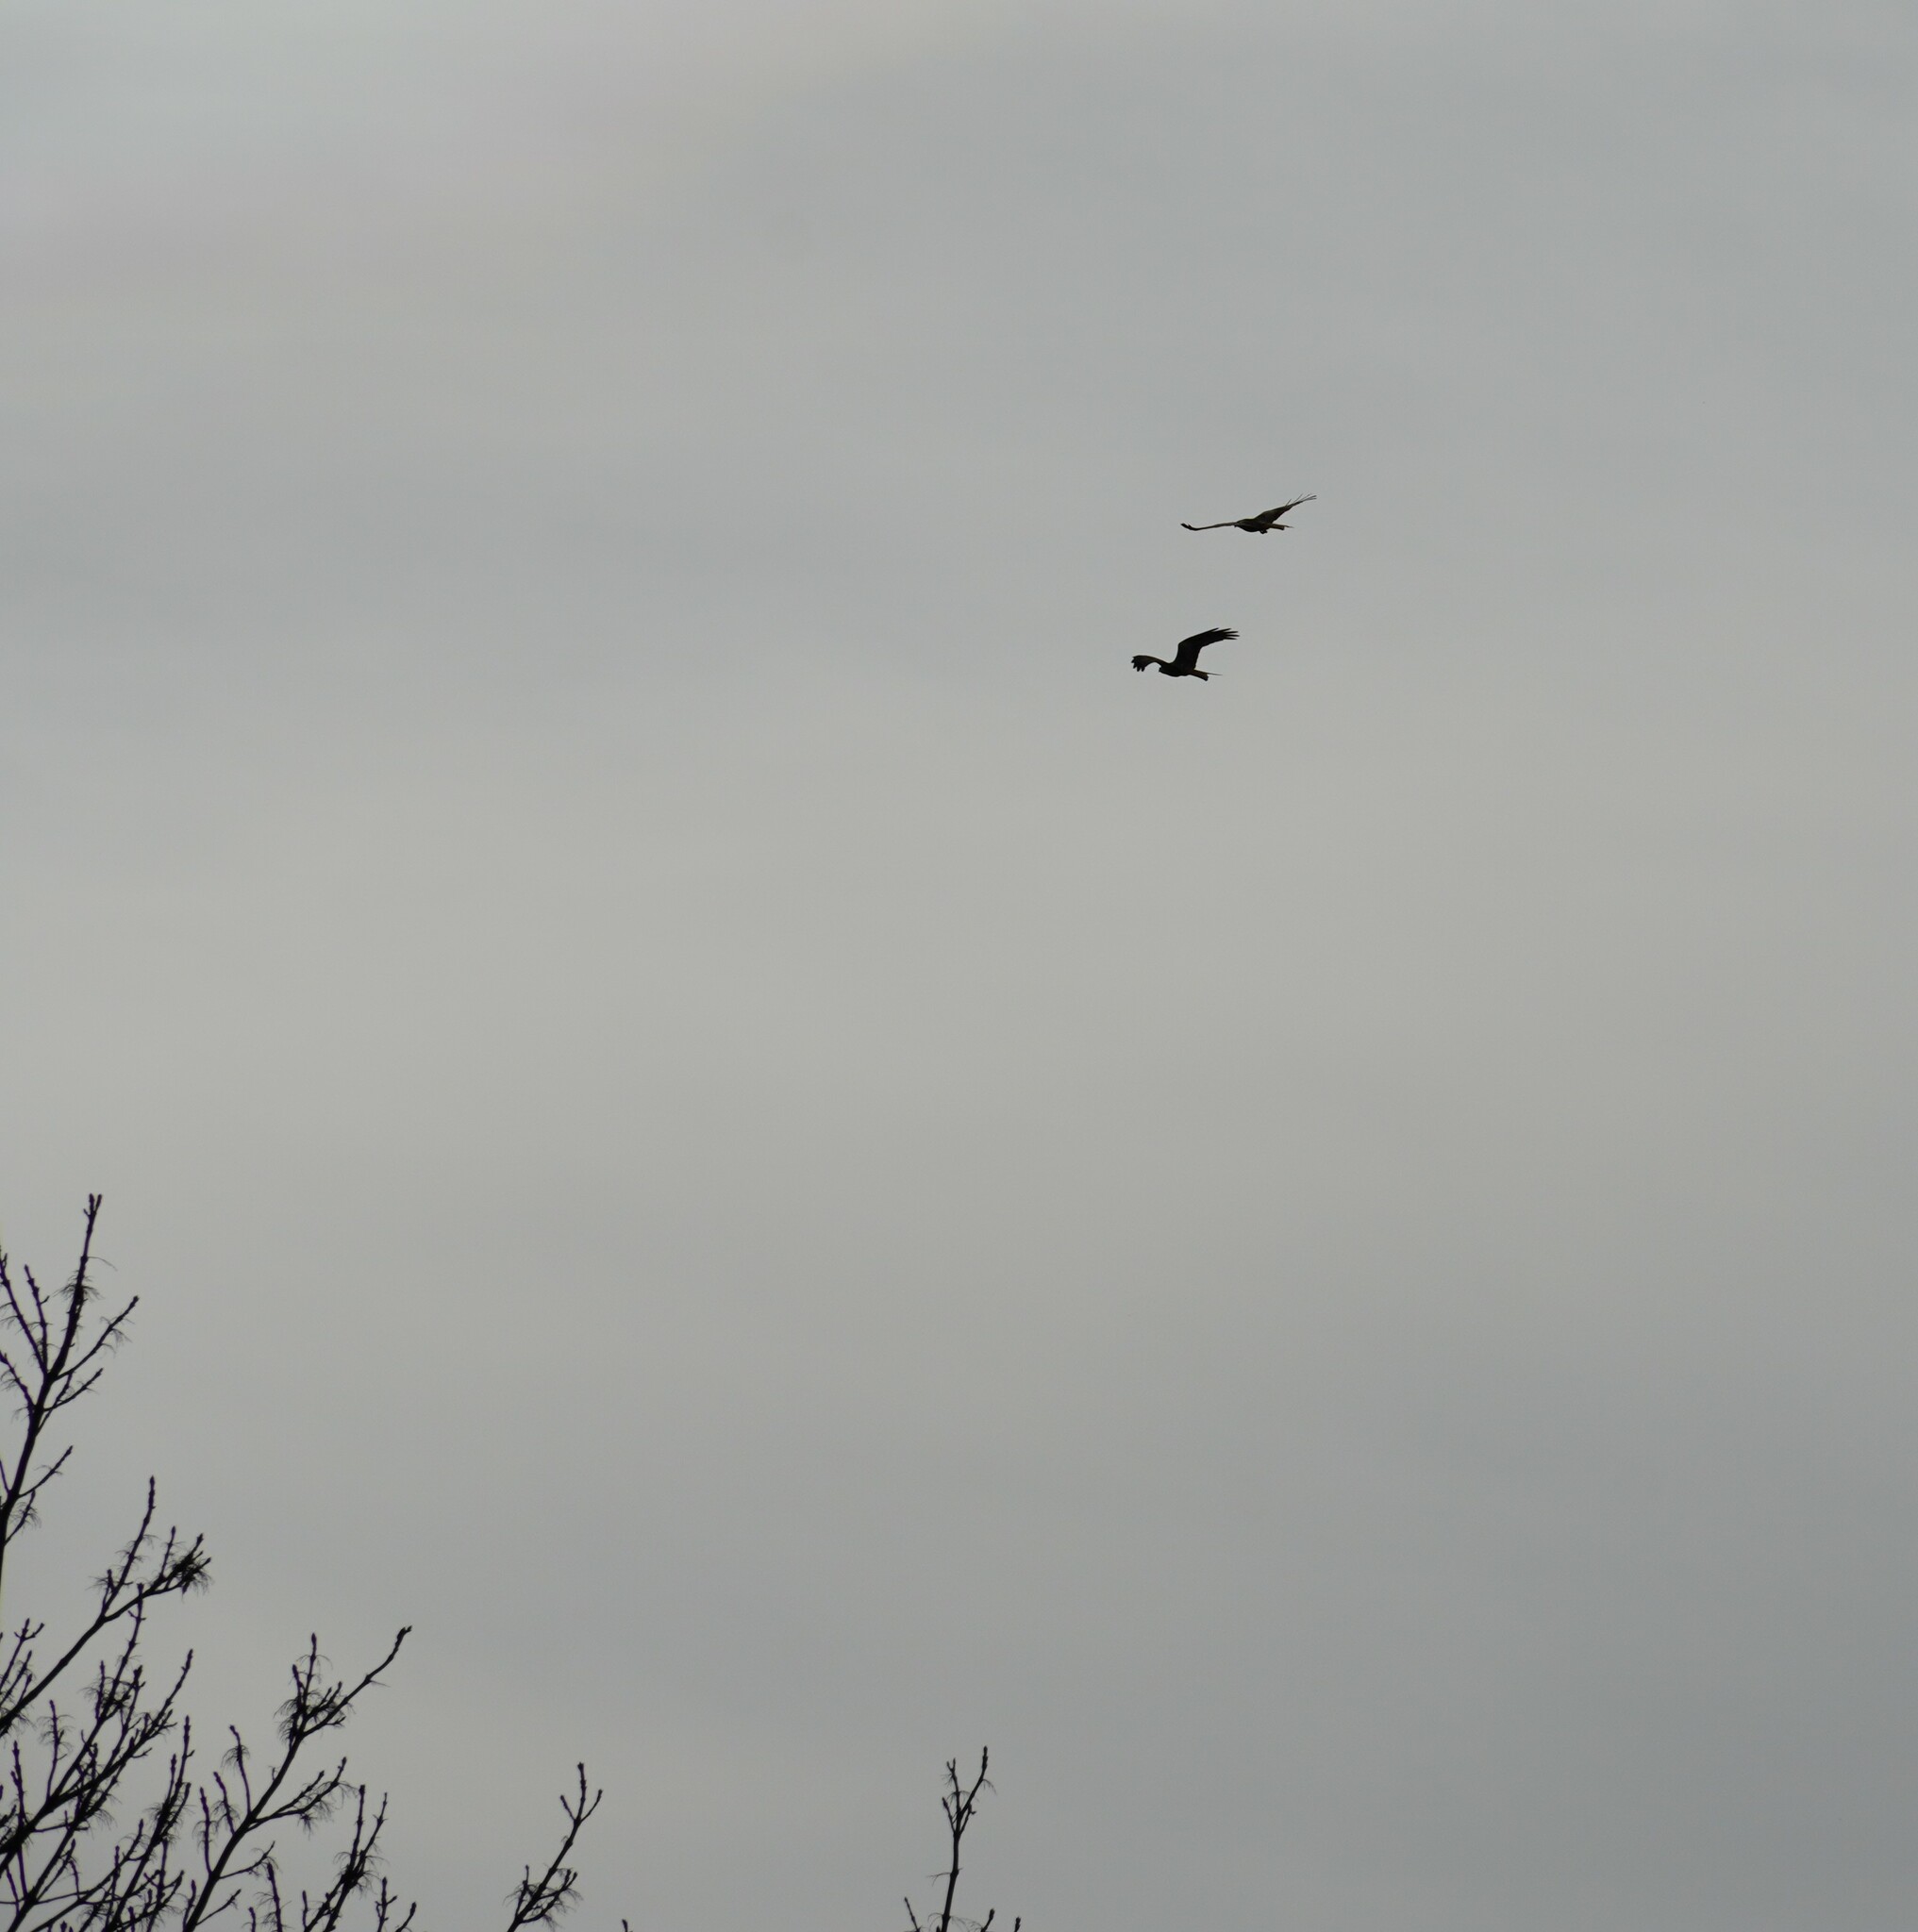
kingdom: Animalia
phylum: Chordata
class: Aves
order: Accipitriformes
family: Accipitridae
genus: Milvus
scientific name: Milvus milvus
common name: Red kite
